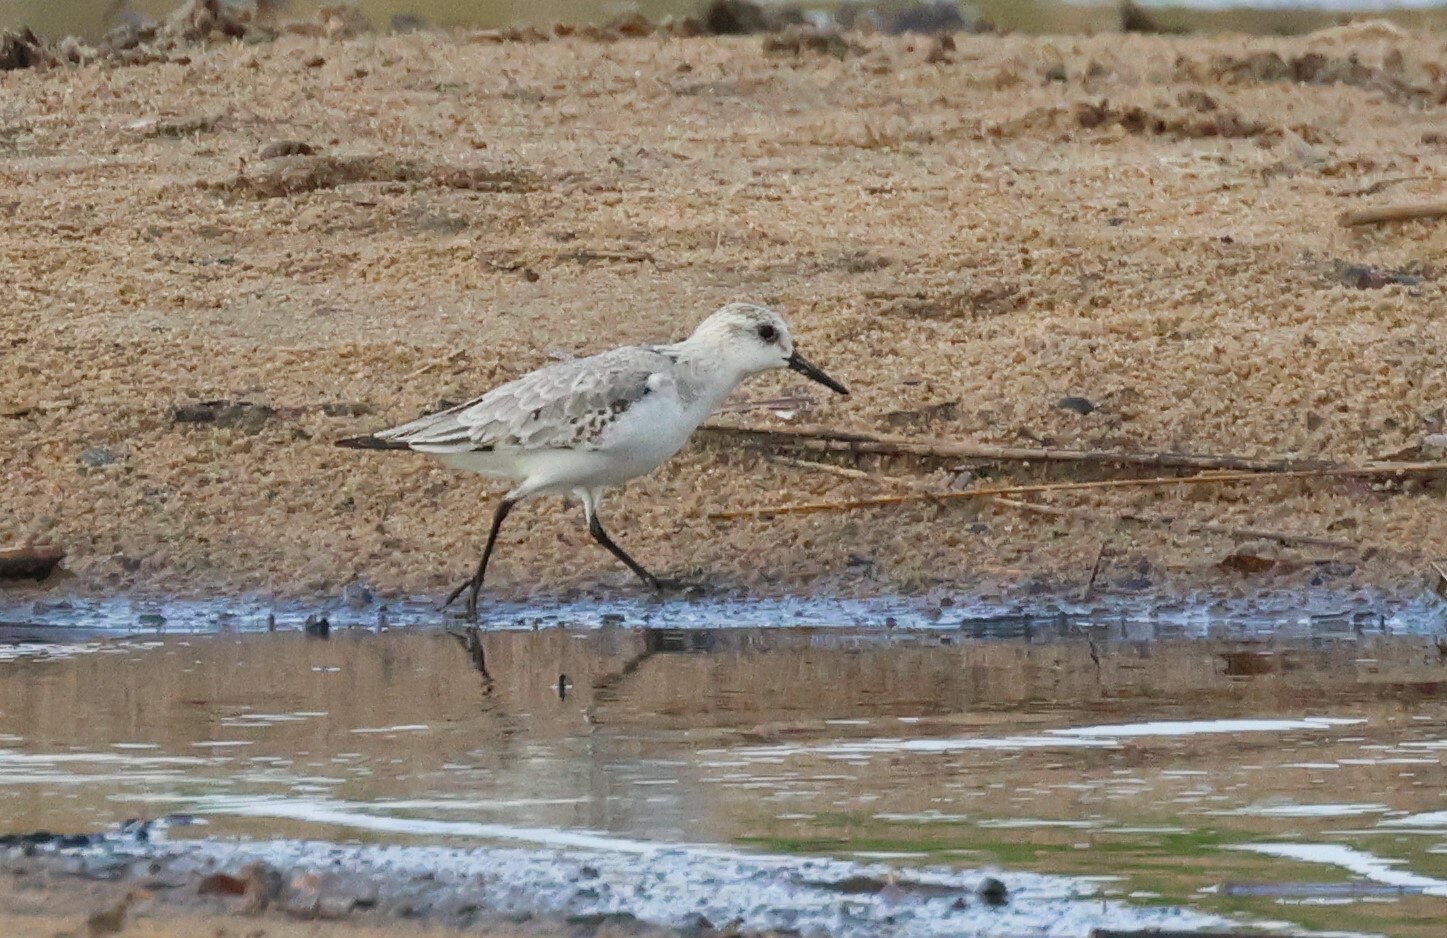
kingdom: Animalia
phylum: Chordata
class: Aves
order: Charadriiformes
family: Scolopacidae
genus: Calidris
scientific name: Calidris alba
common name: Sanderling
